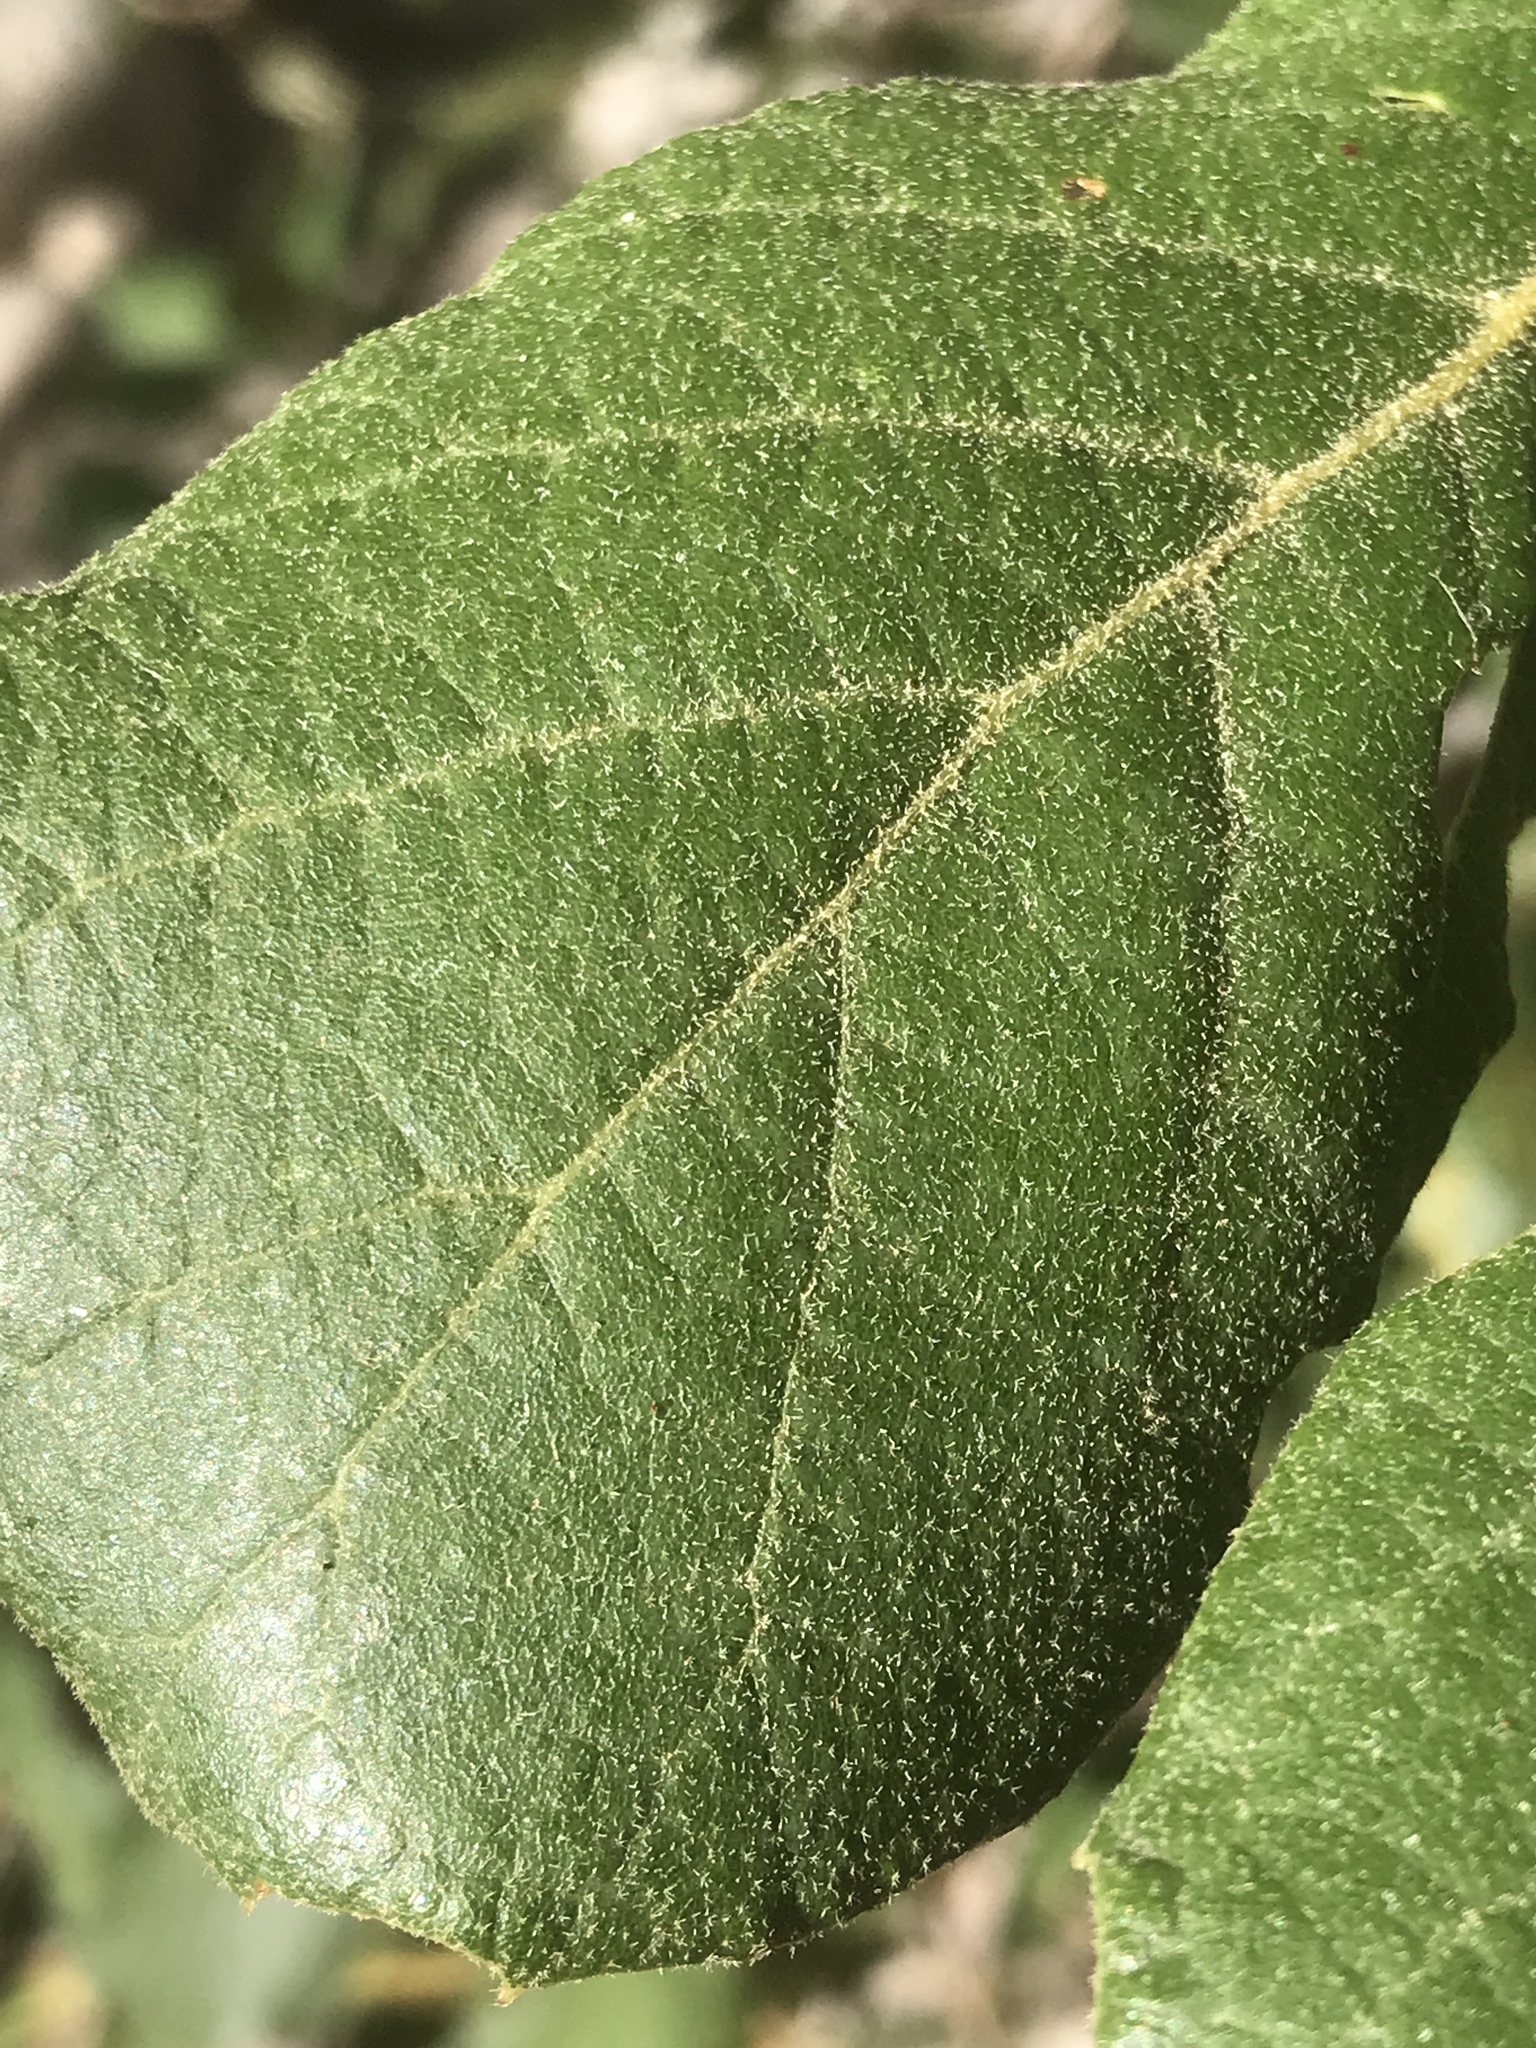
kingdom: Plantae
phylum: Tracheophyta
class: Magnoliopsida
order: Fagales
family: Fagaceae
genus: Quercus
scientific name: Quercus rugosa
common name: Netleaf oak
